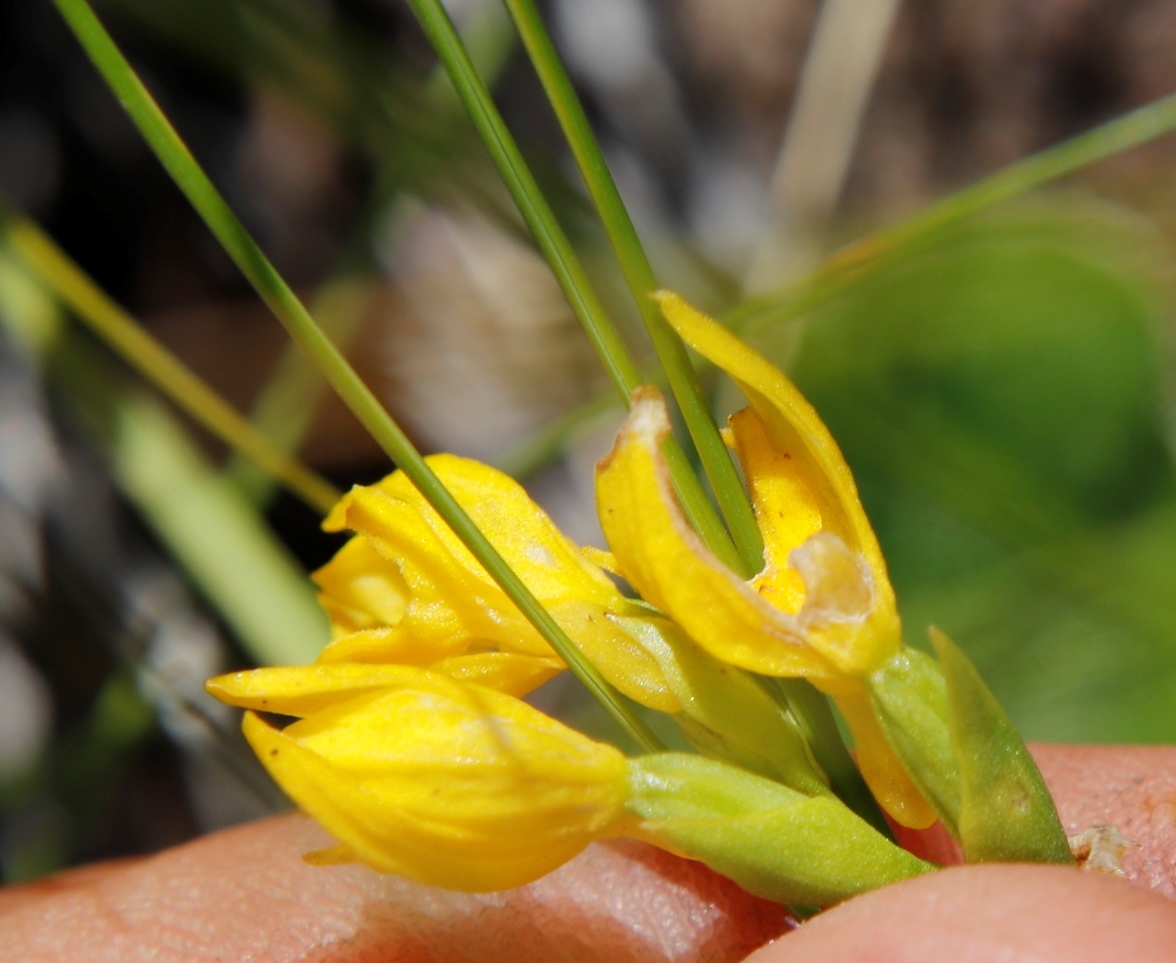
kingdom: Plantae
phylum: Tracheophyta
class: Liliopsida
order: Asparagales
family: Orchidaceae
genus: Schizochilus
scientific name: Schizochilus zeyheri
